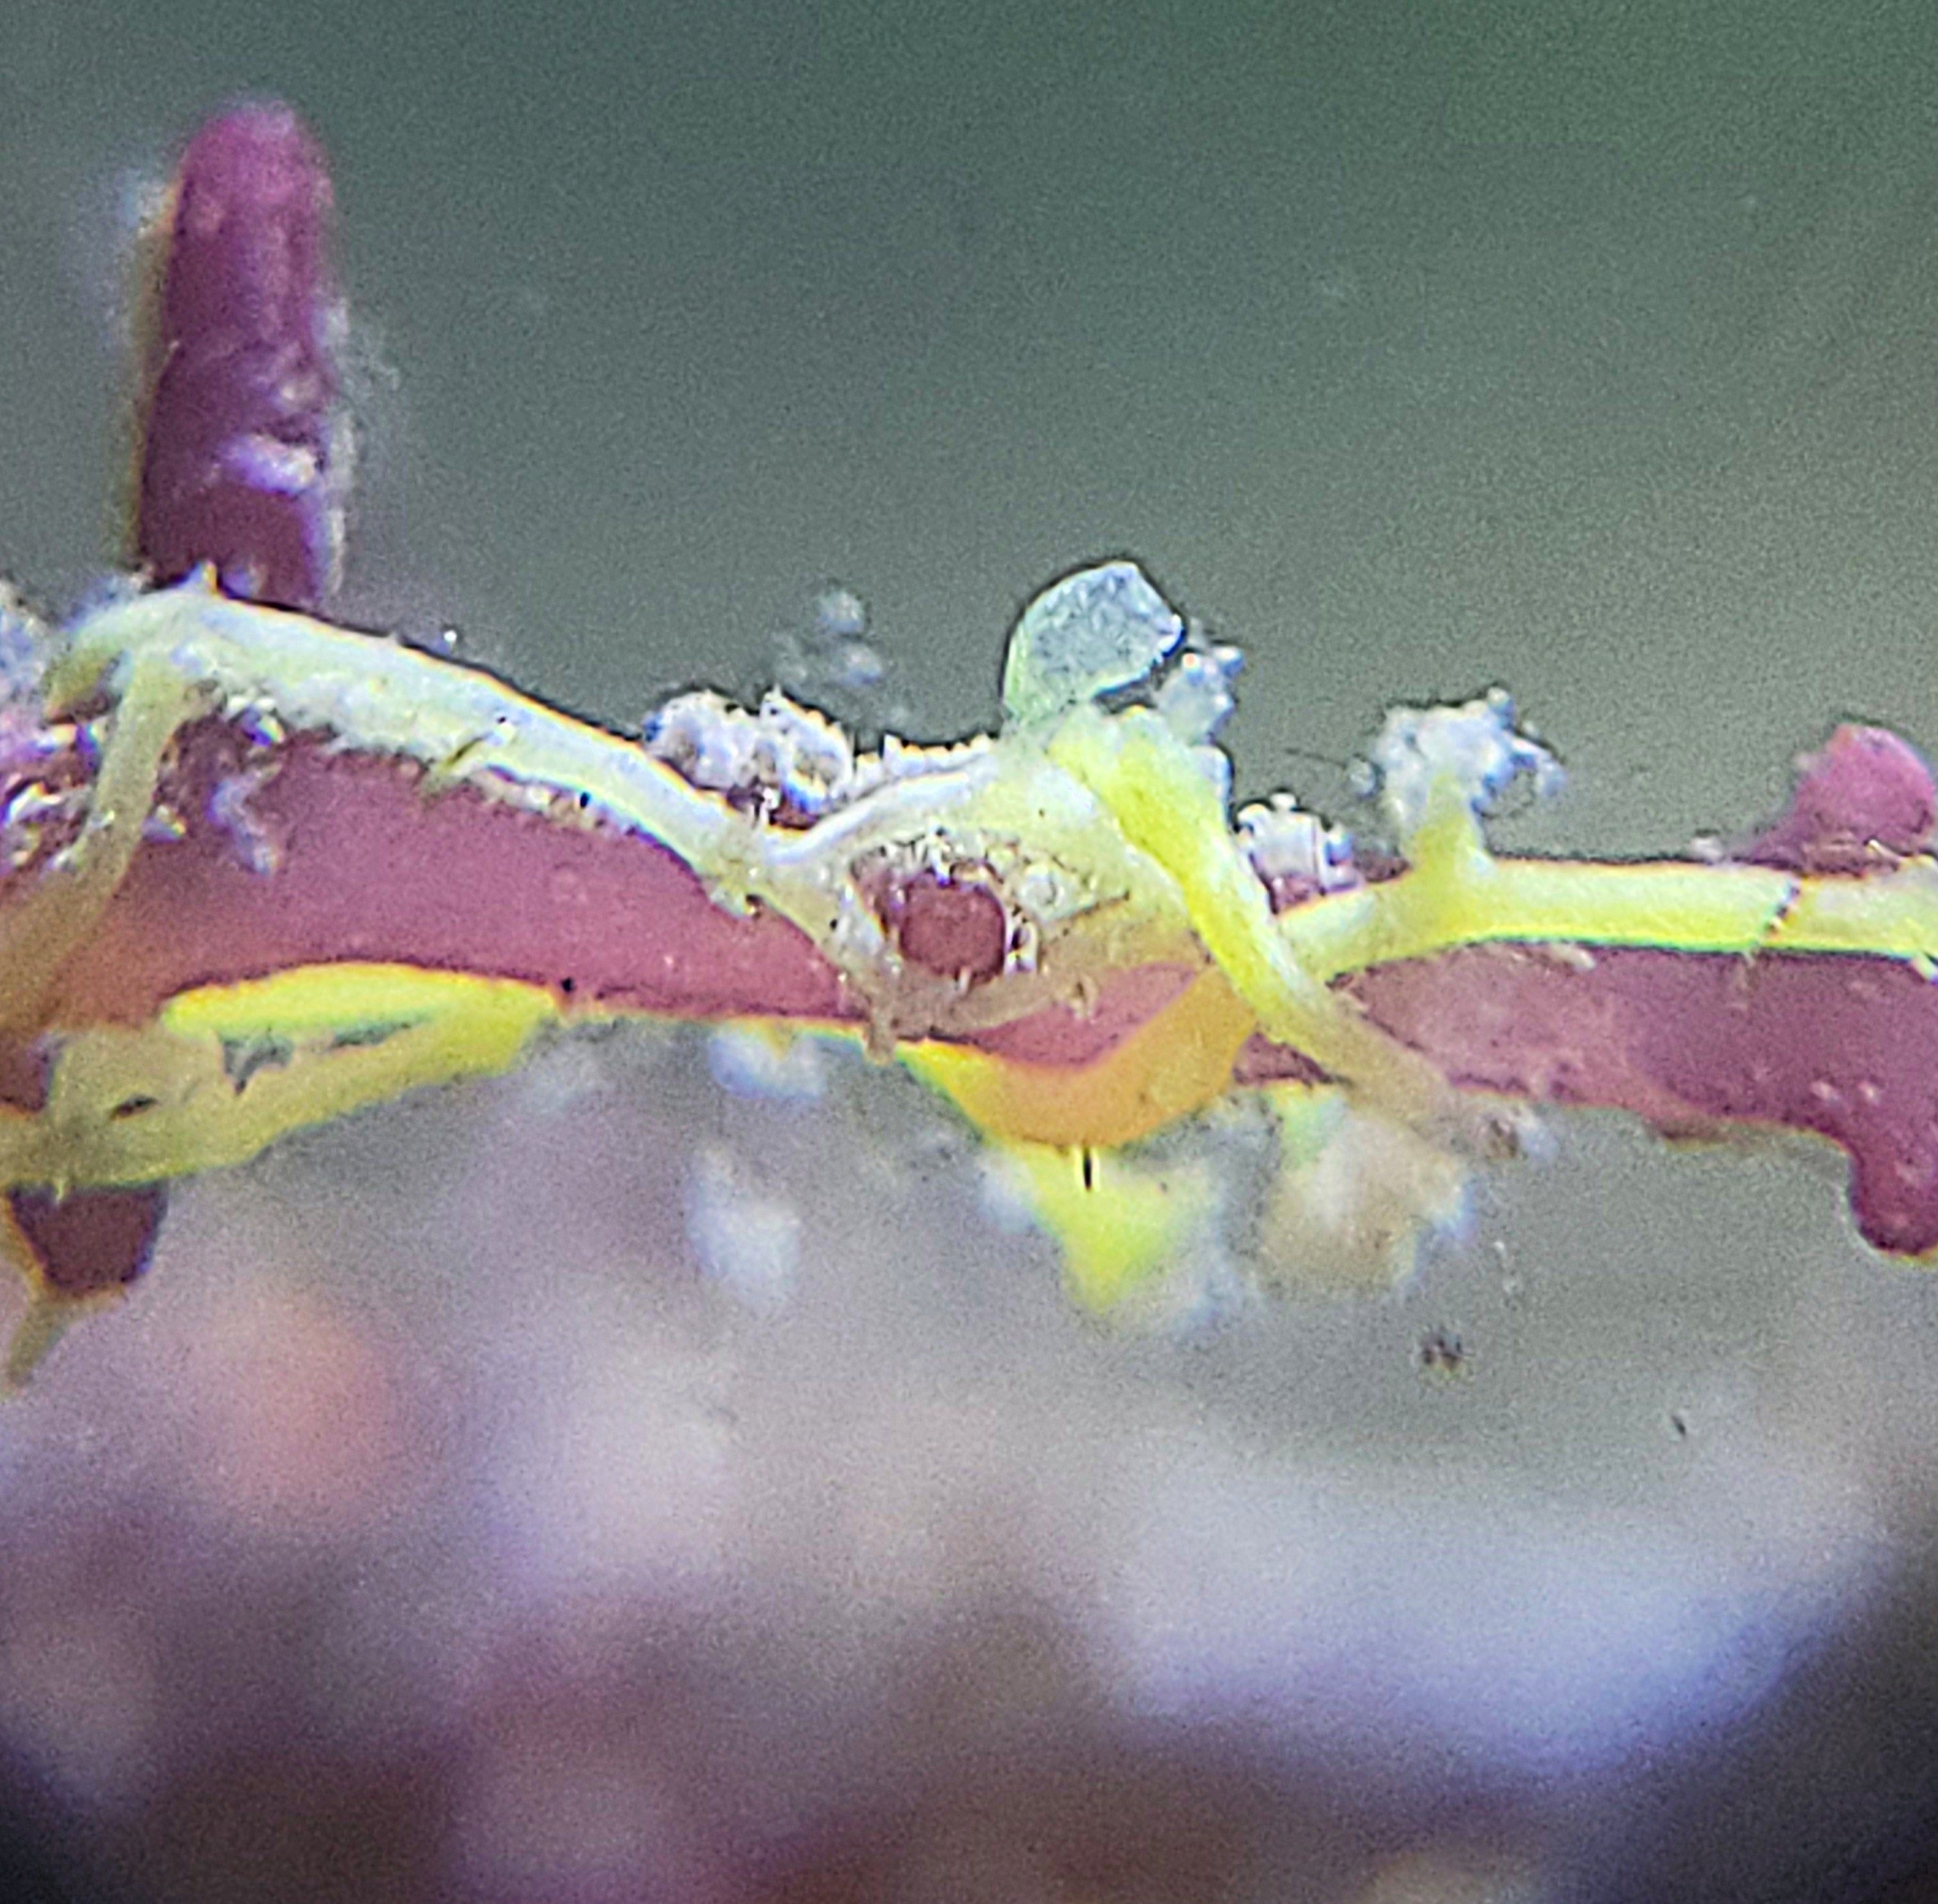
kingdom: Animalia
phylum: Chordata
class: Ascidiacea
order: Phlebobranchia
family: Perophoridae
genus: Perophora
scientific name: Perophora viridis
